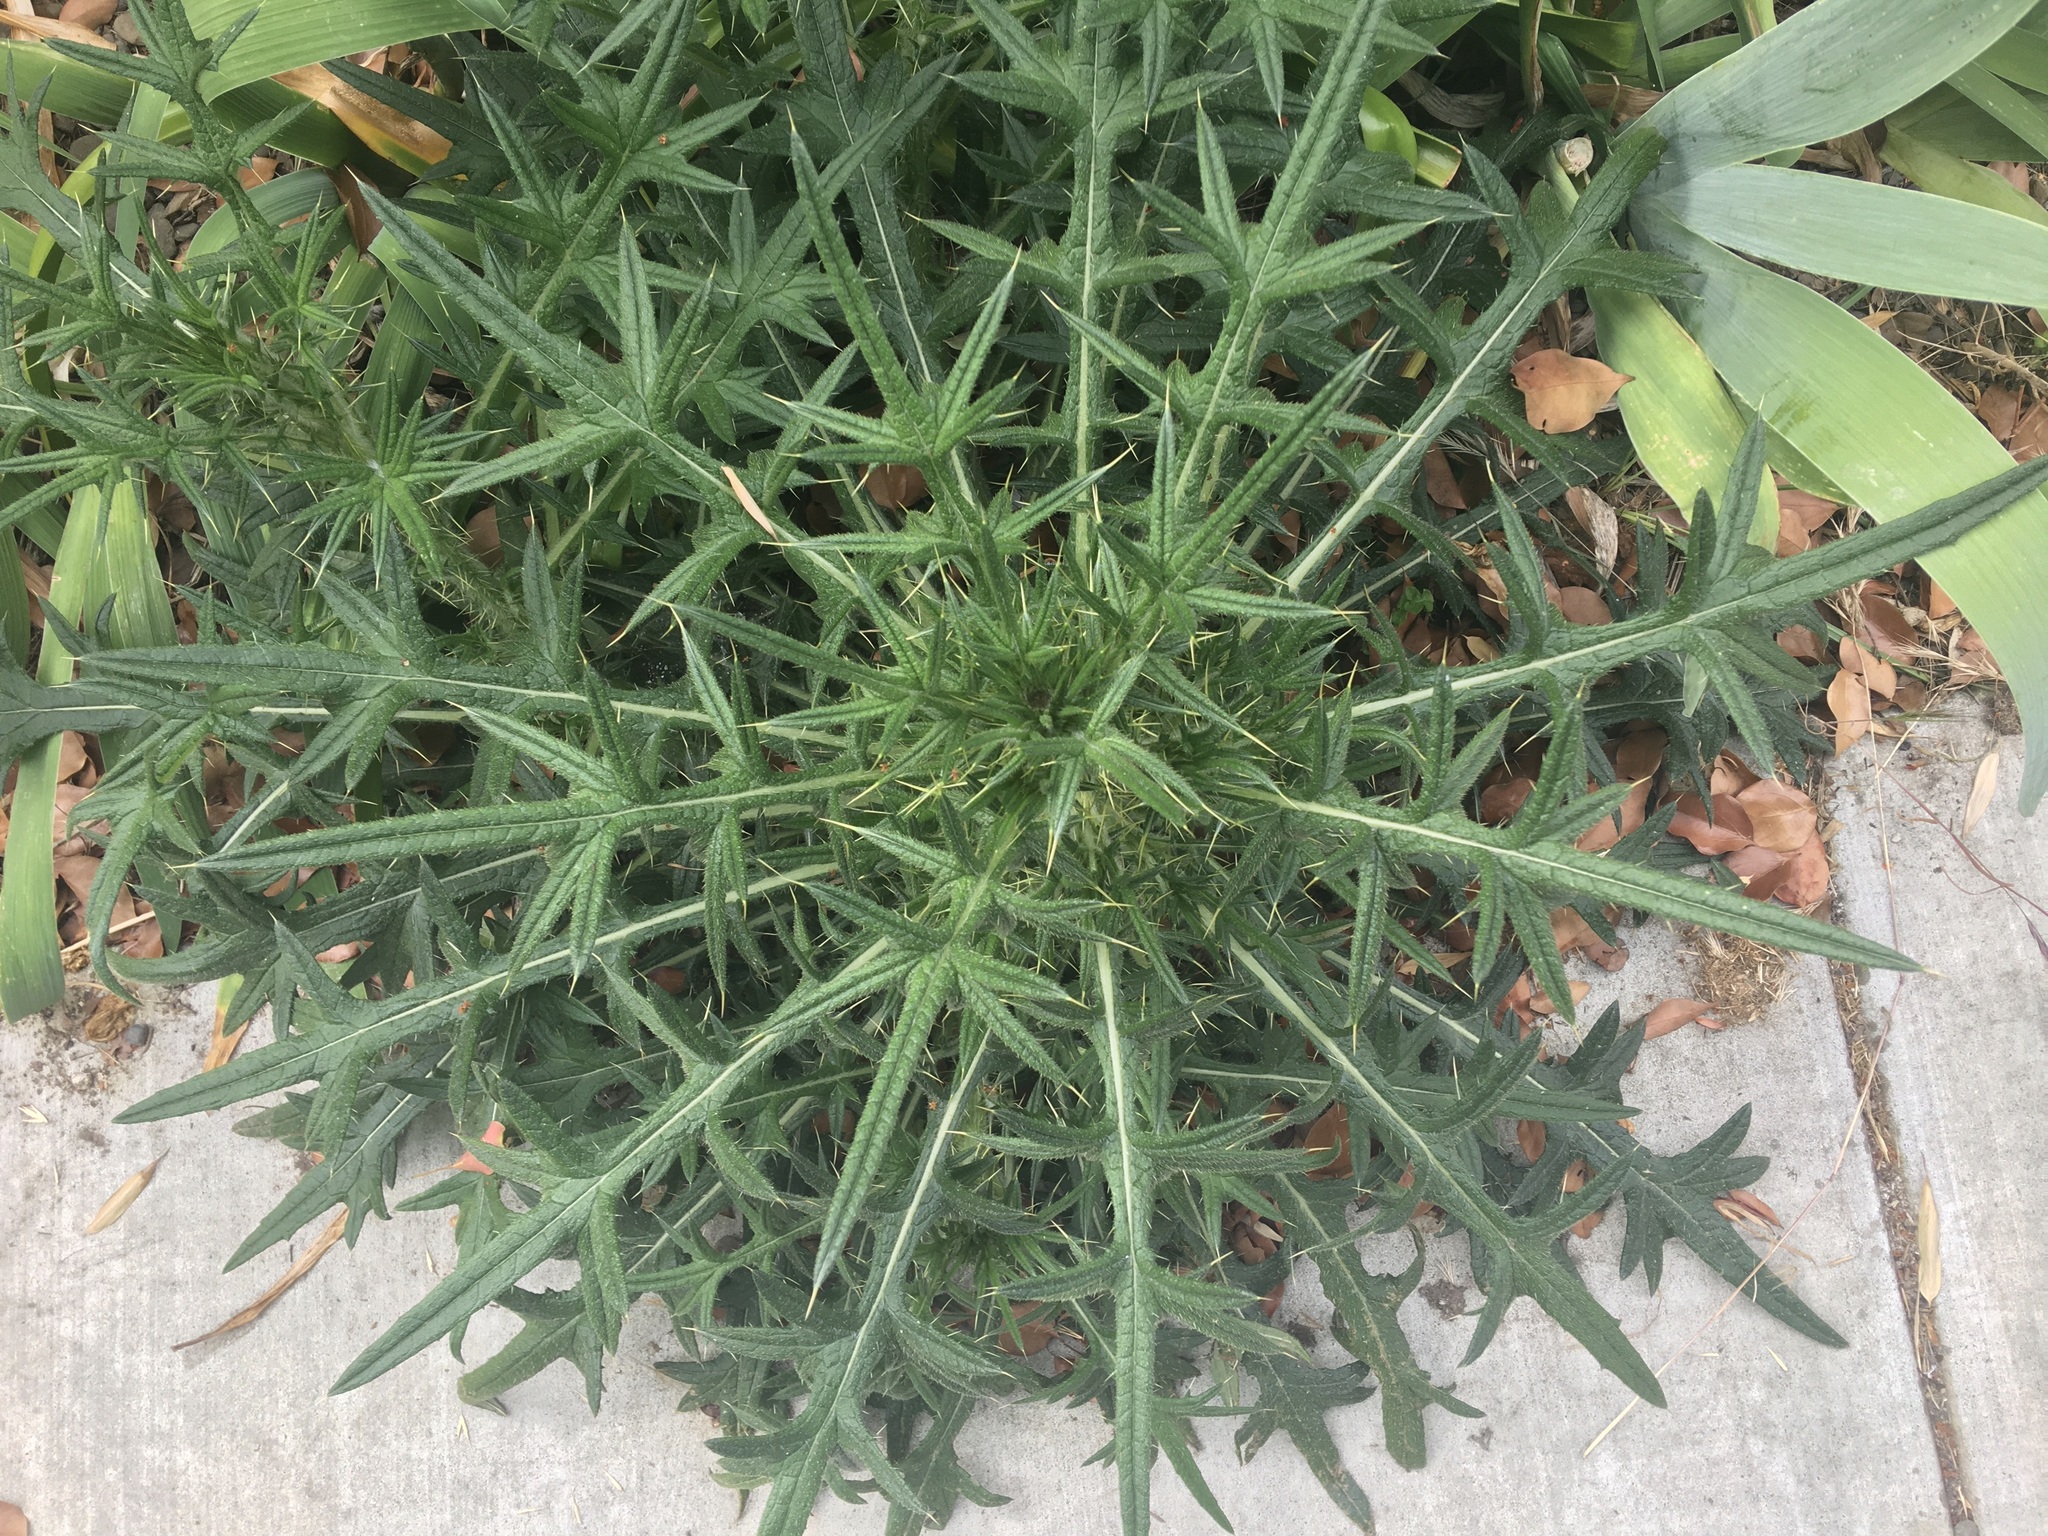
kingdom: Plantae
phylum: Tracheophyta
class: Magnoliopsida
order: Asterales
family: Asteraceae
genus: Cirsium
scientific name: Cirsium vulgare
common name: Bull thistle
